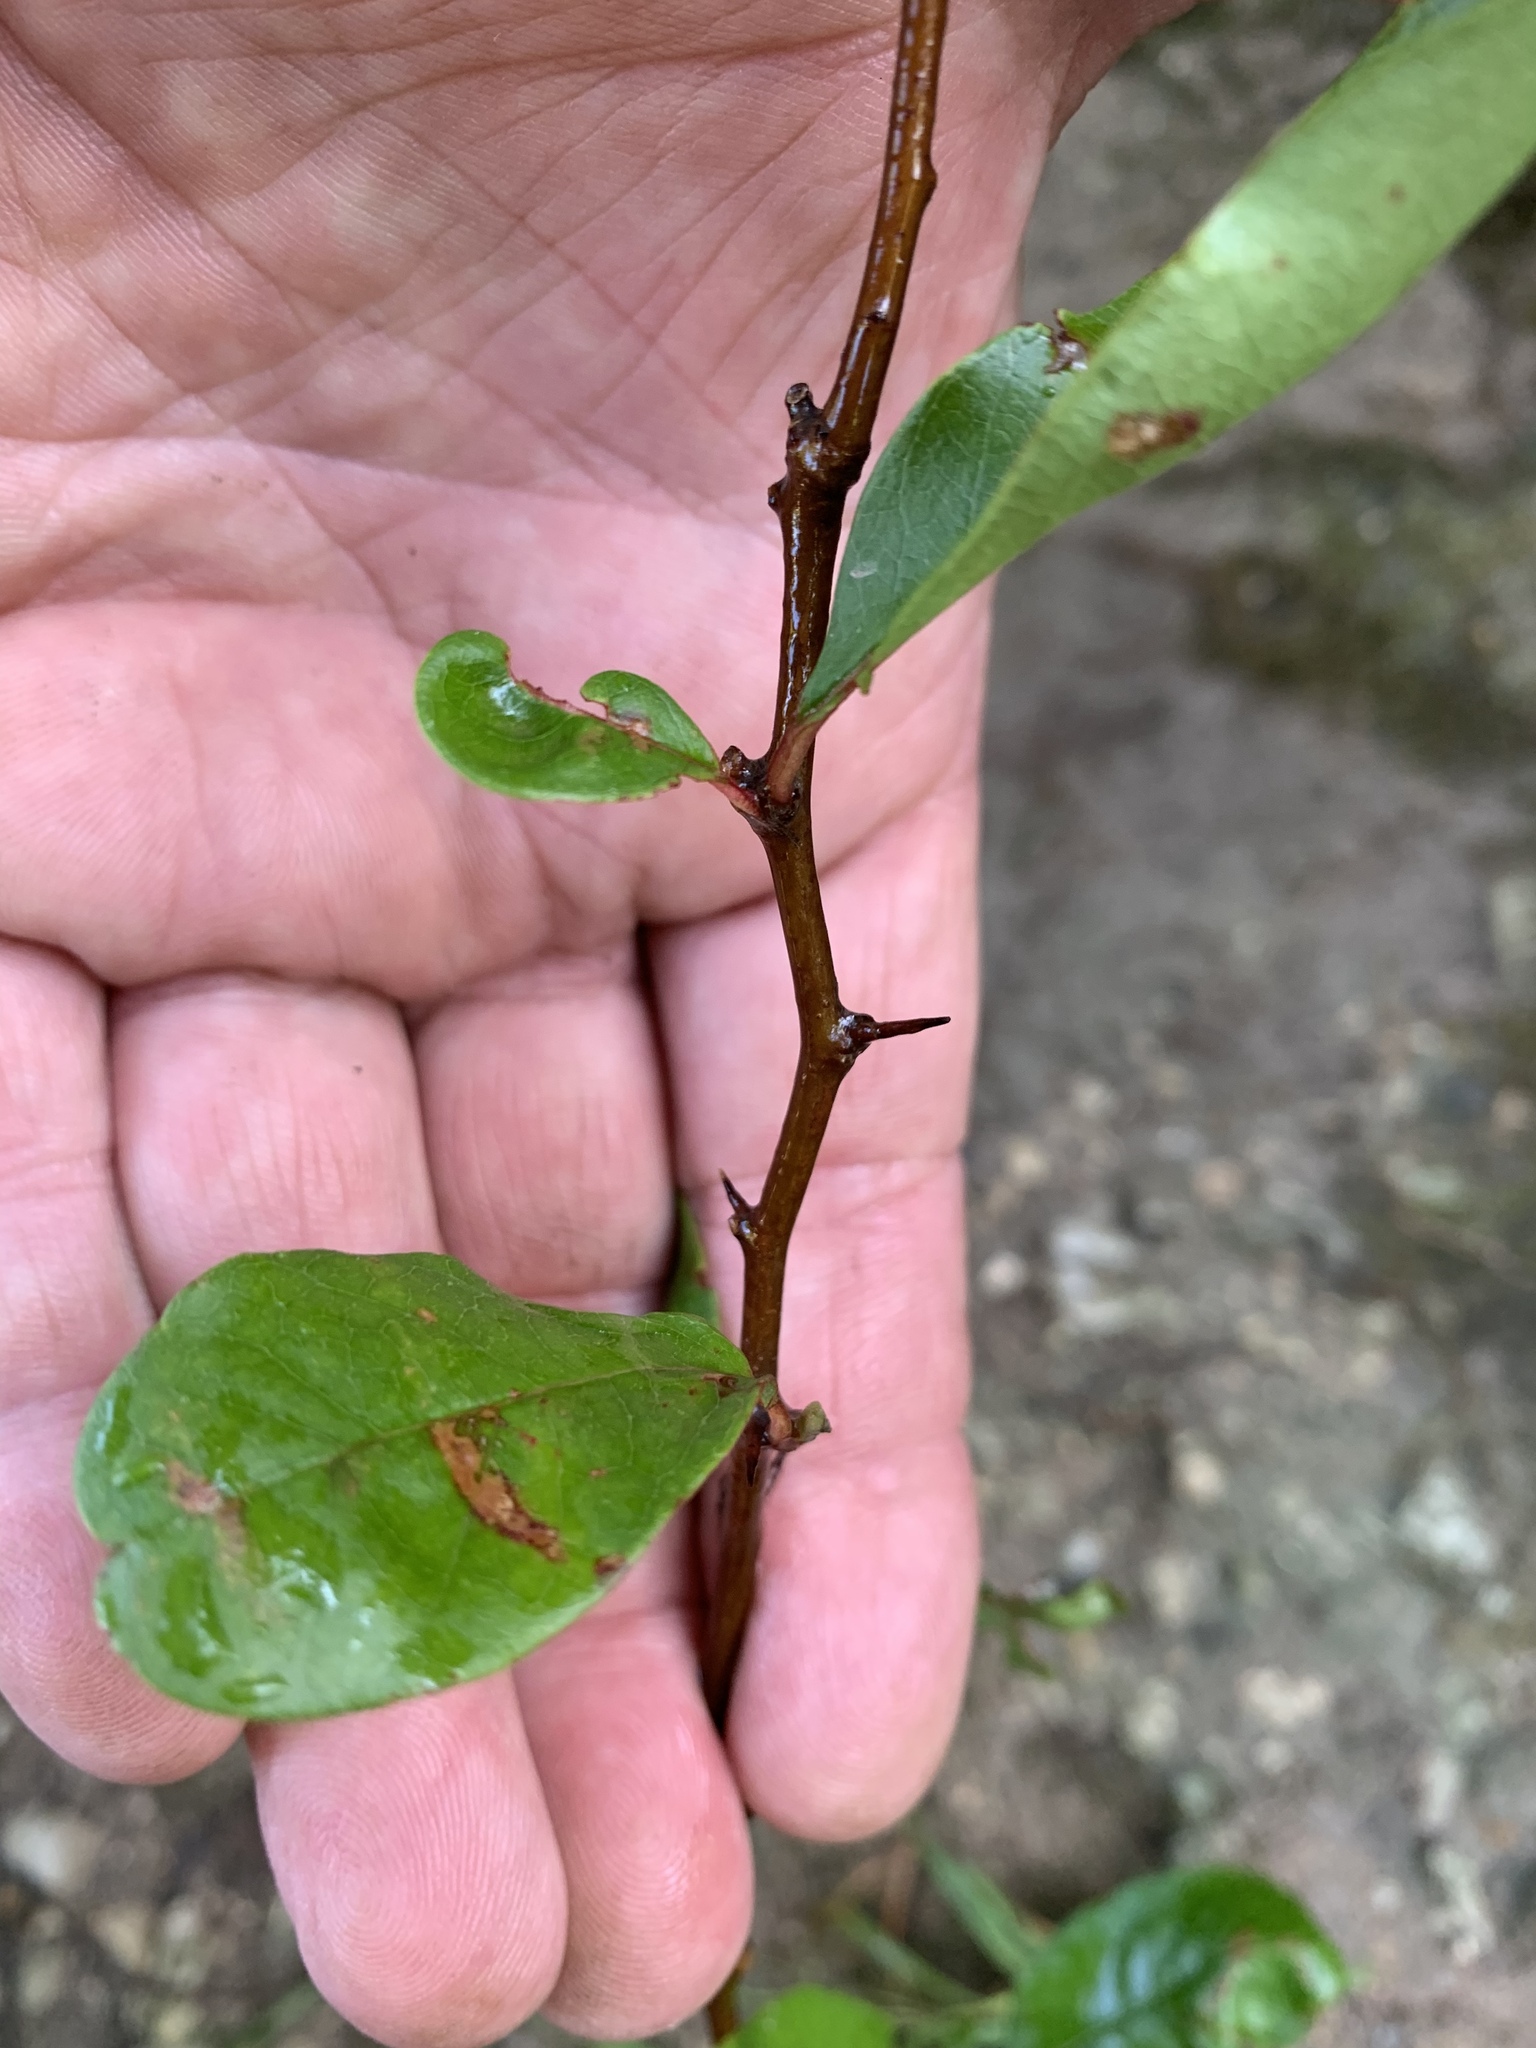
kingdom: Plantae
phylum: Tracheophyta
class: Magnoliopsida
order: Ericales
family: Sapotaceae
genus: Sideroxylon
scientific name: Sideroxylon lanuginosum
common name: Chittamwood
